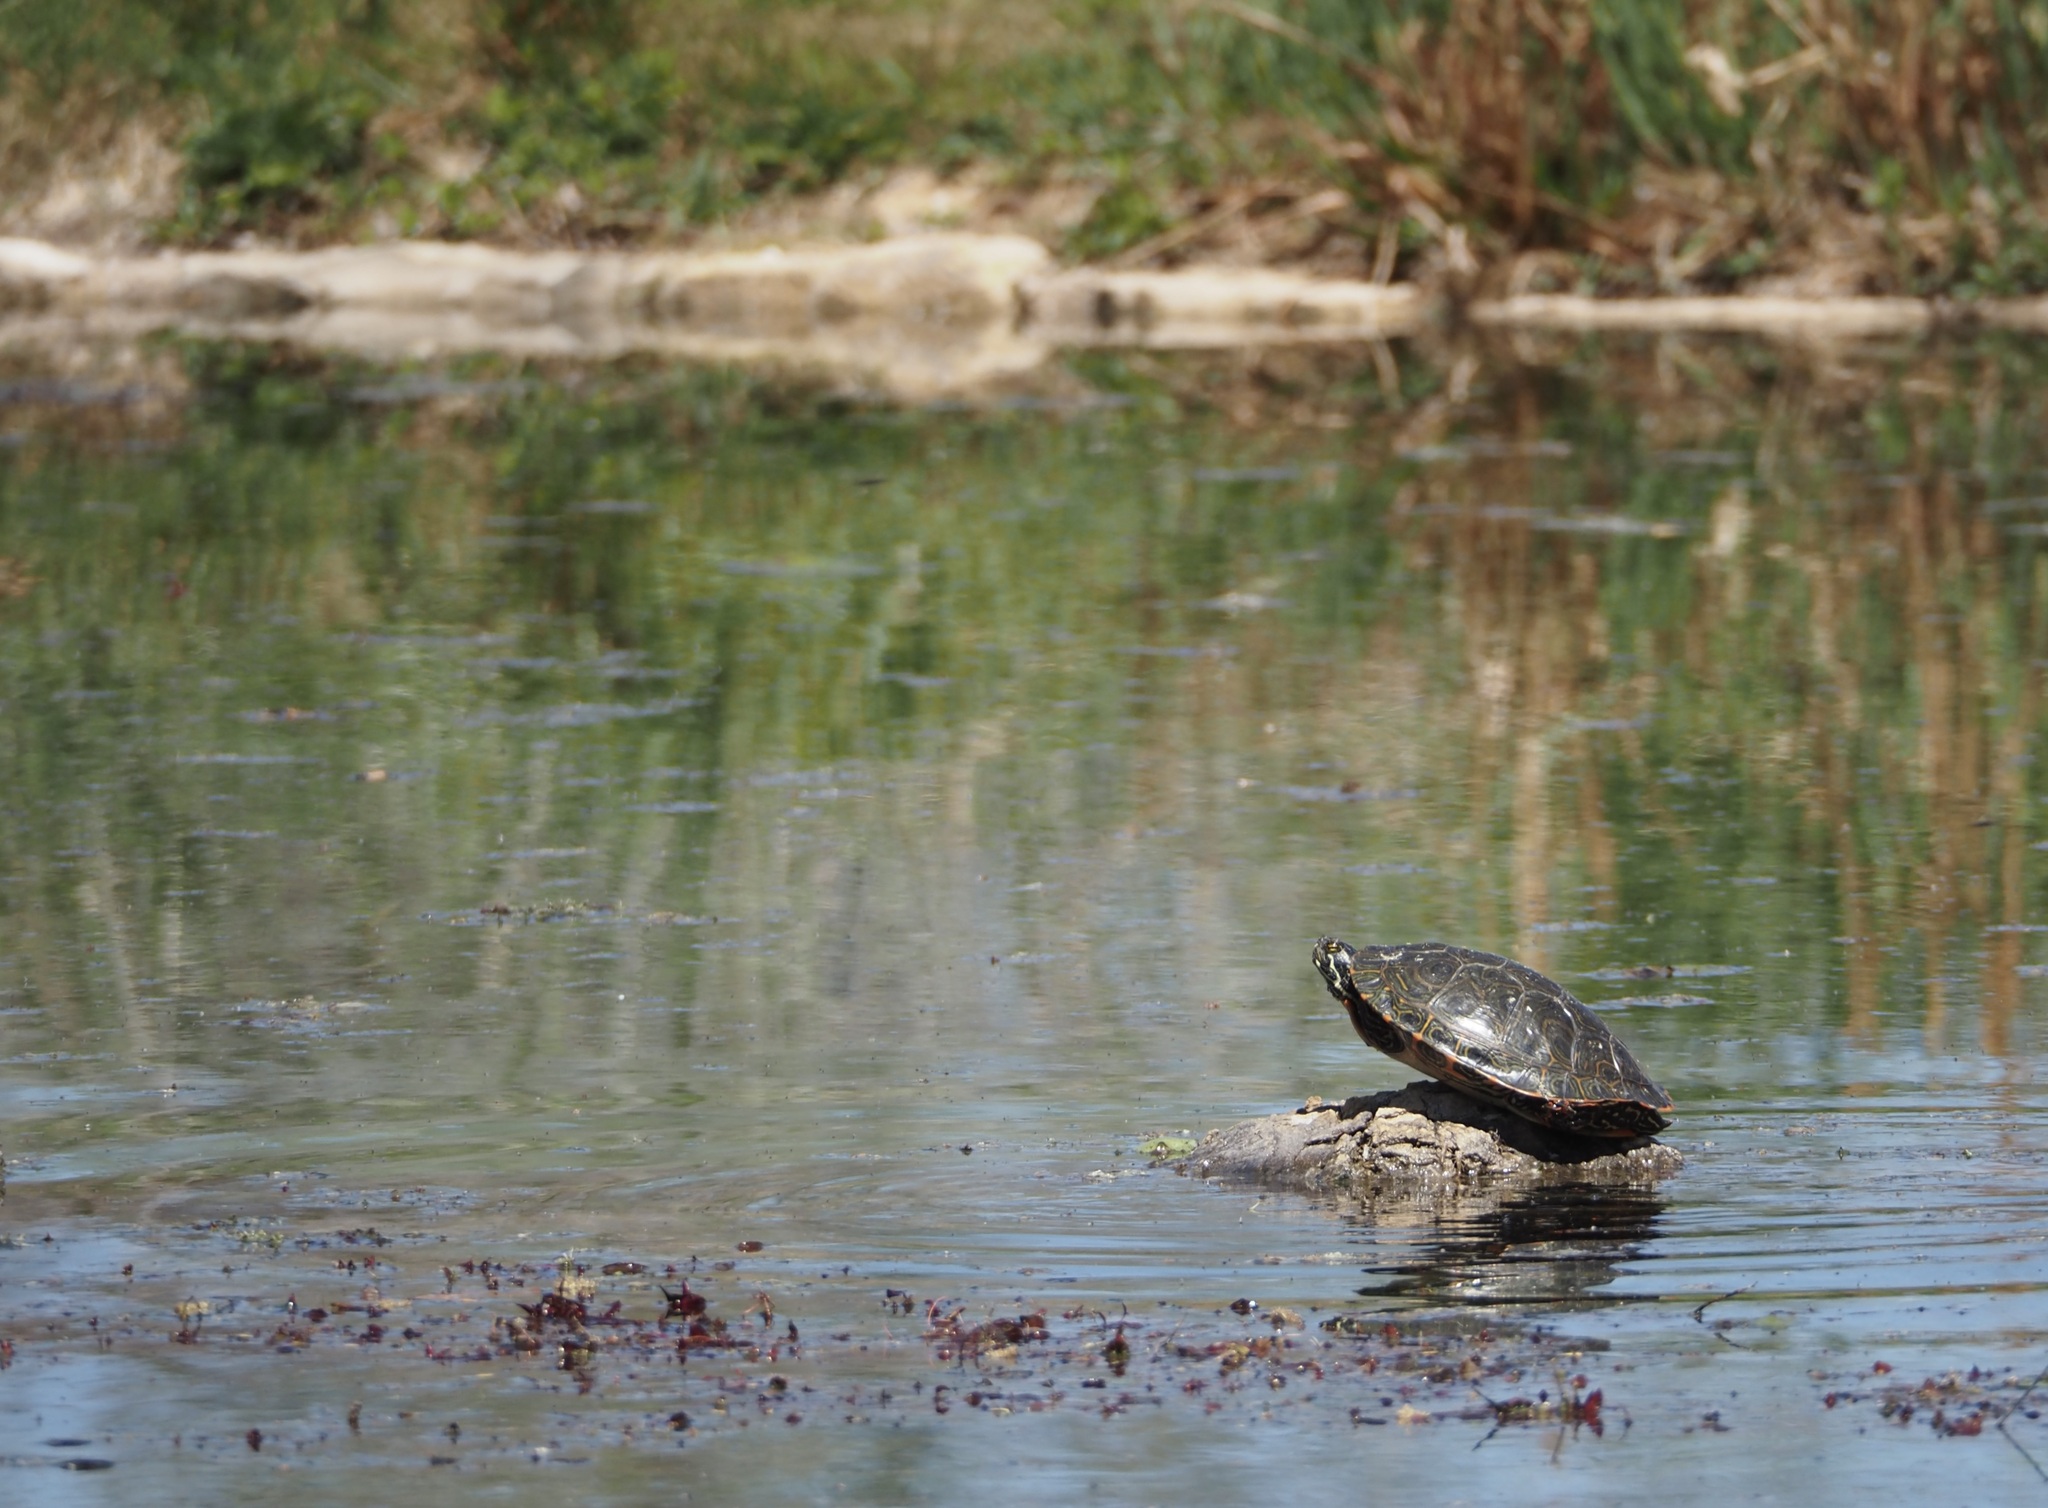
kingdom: Animalia
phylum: Chordata
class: Testudines
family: Emydidae
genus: Pseudemys
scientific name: Pseudemys gorzugi
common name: Rio grande cooter
